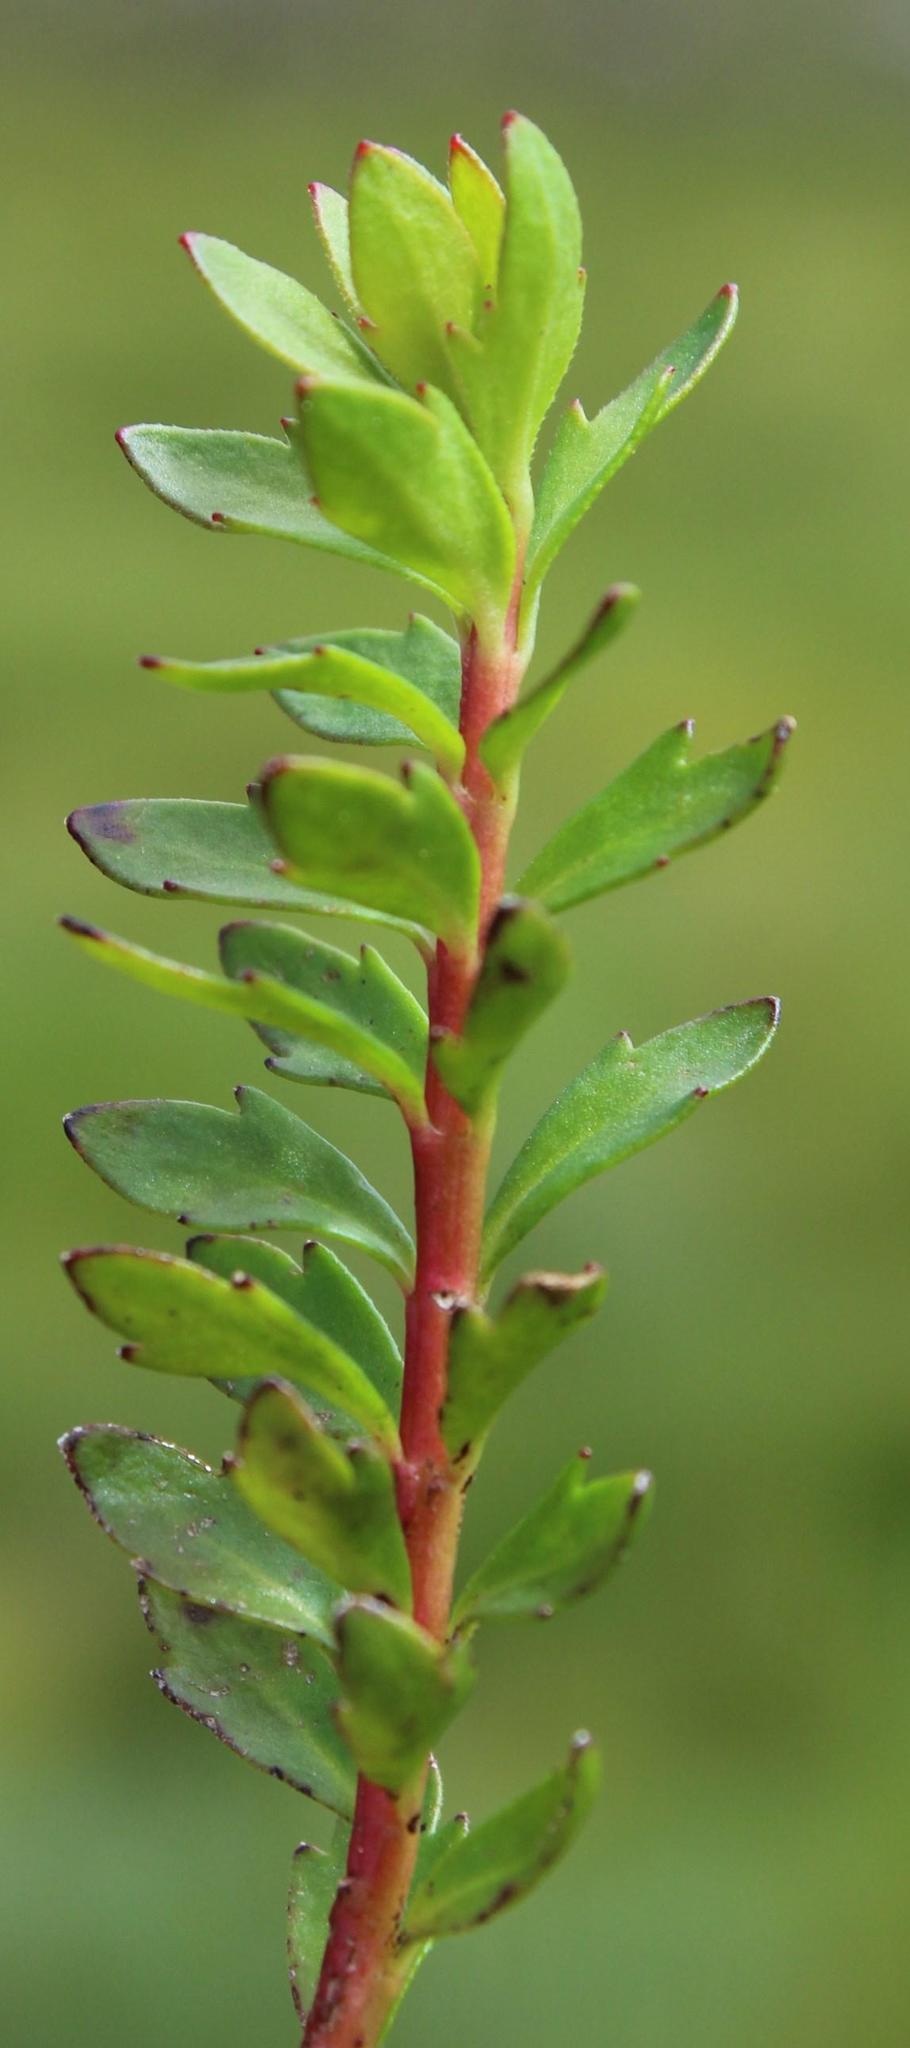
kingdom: Plantae
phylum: Tracheophyta
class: Magnoliopsida
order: Saxifragales
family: Haloragaceae
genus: Laurembergia
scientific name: Laurembergia repens
